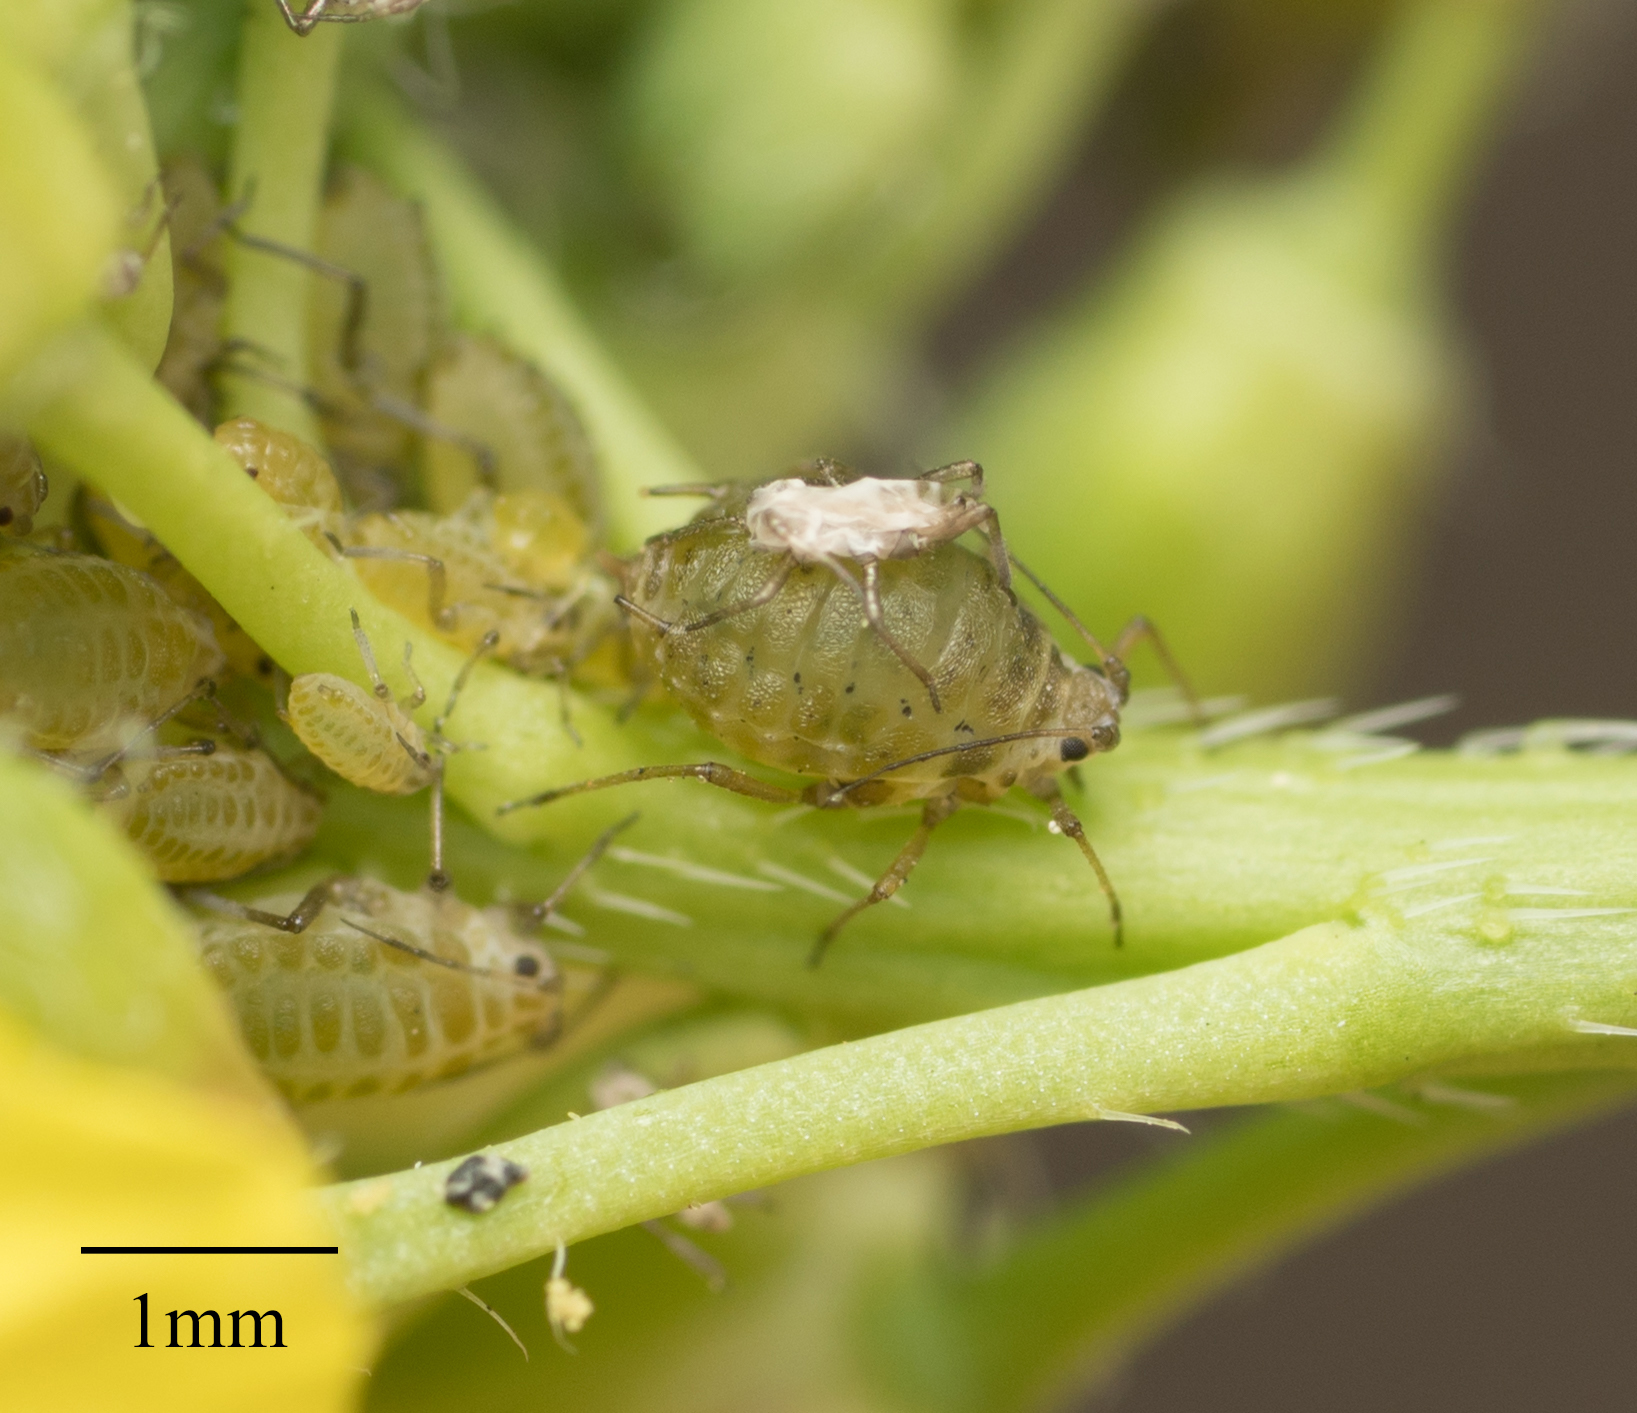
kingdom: Animalia
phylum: Arthropoda
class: Insecta
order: Hemiptera
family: Aphididae
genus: Lipaphis
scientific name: Lipaphis pseudobrassicae
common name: Turnip aphid
